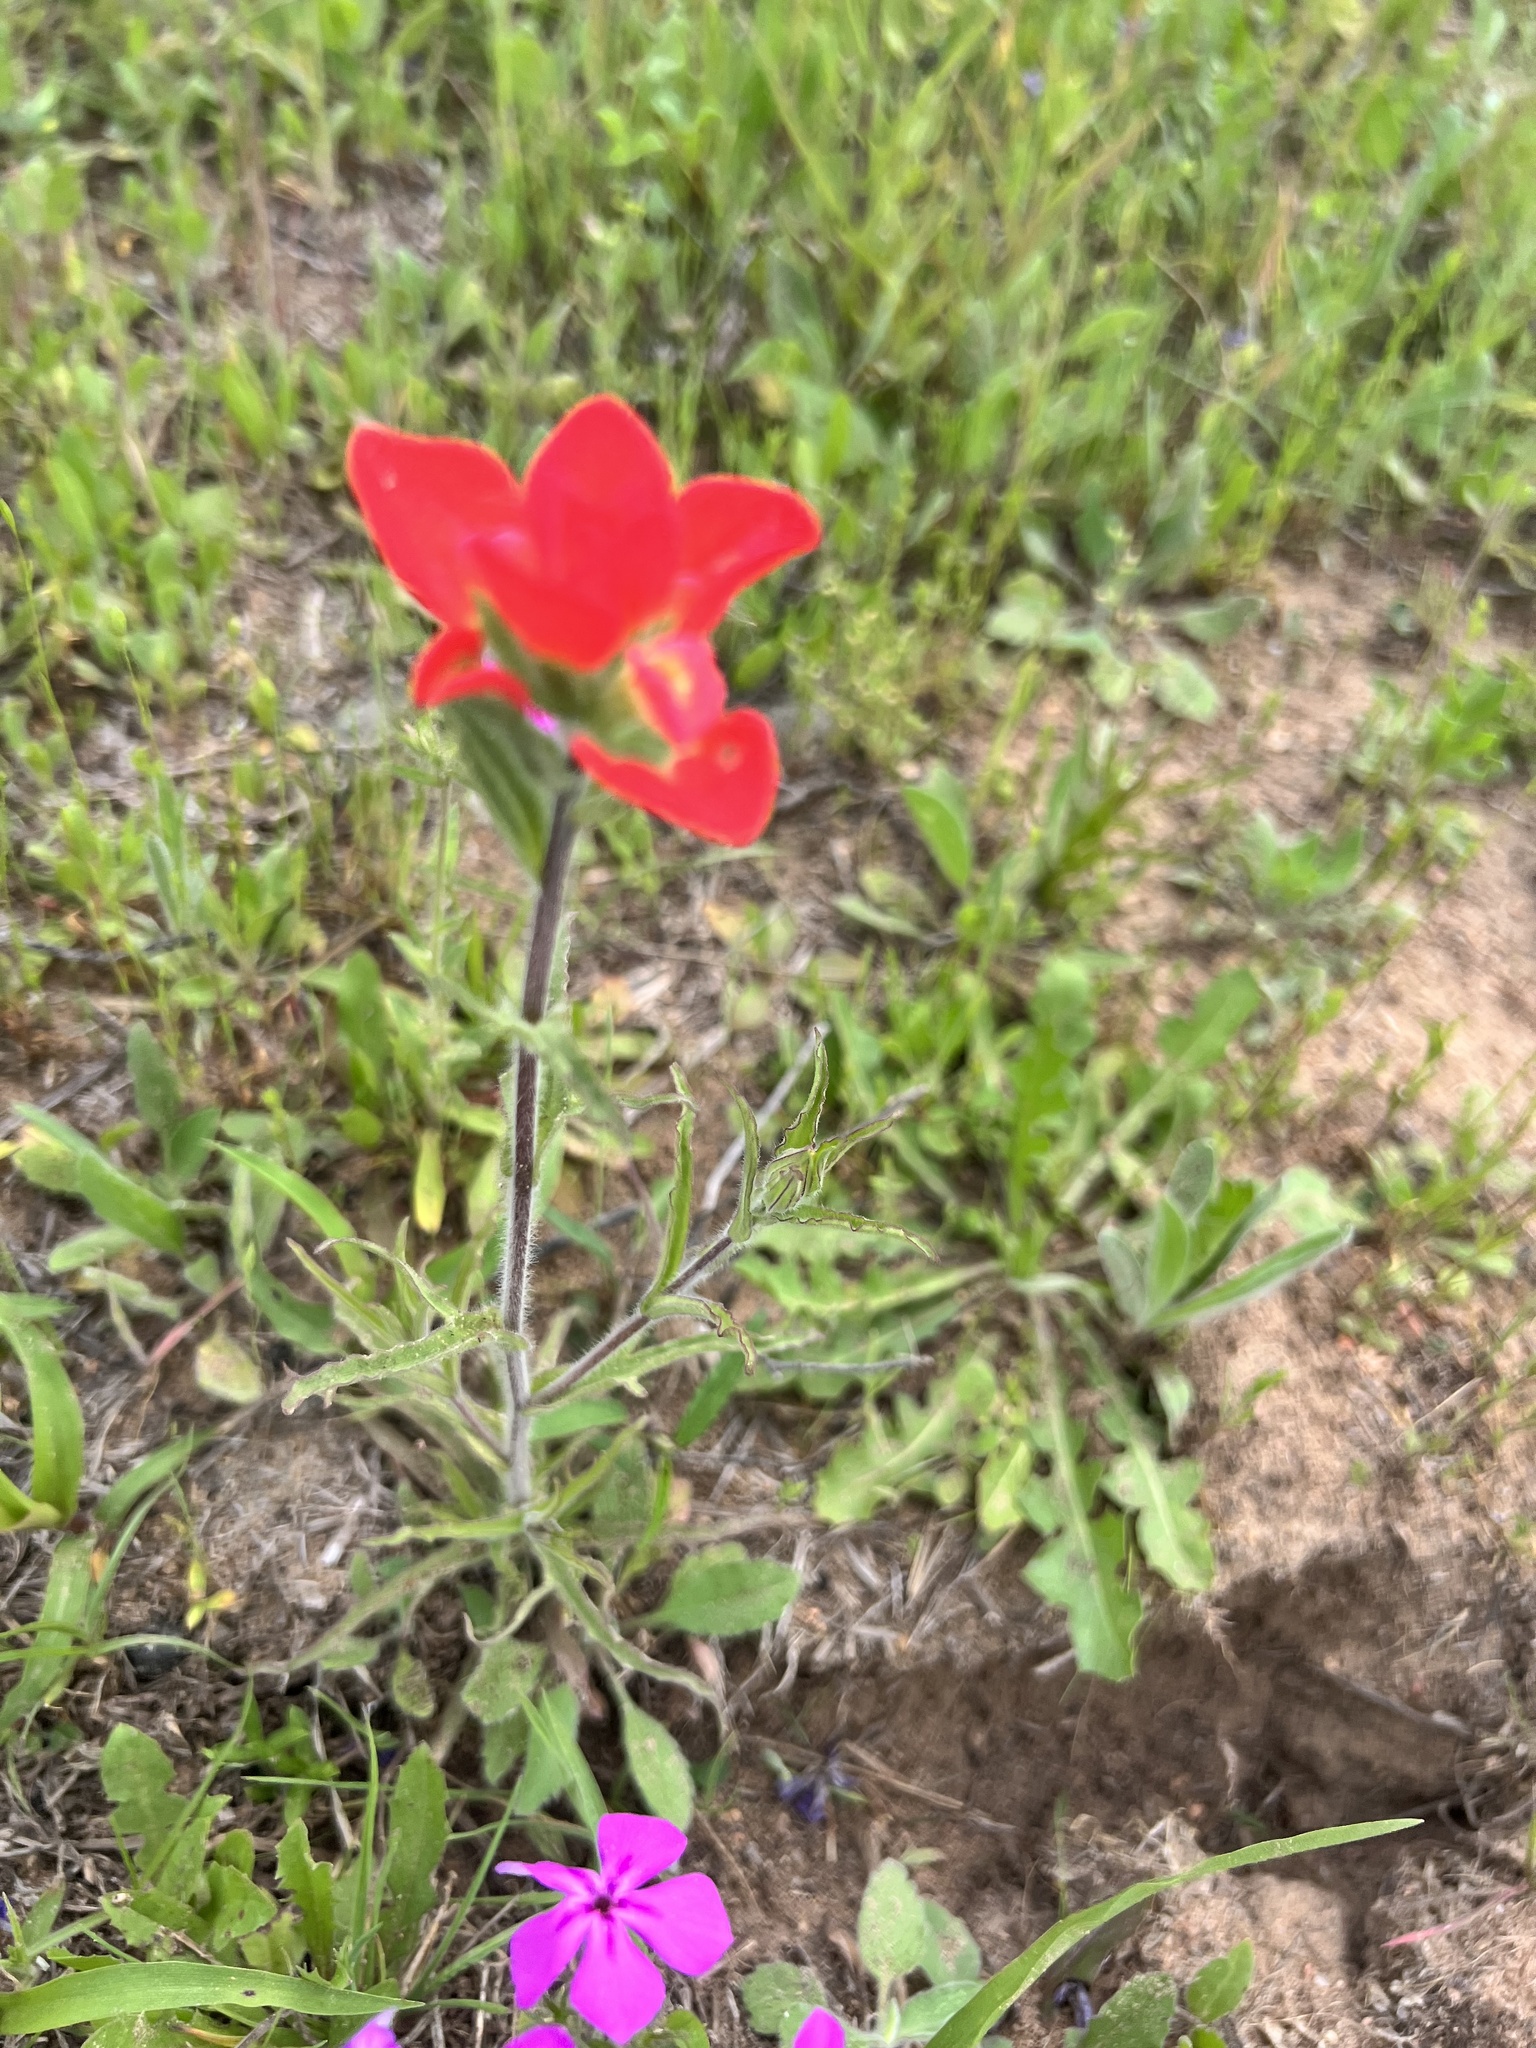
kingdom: Plantae
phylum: Tracheophyta
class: Magnoliopsida
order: Lamiales
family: Orobanchaceae
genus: Castilleja
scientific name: Castilleja indivisa
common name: Texas paintbrush
